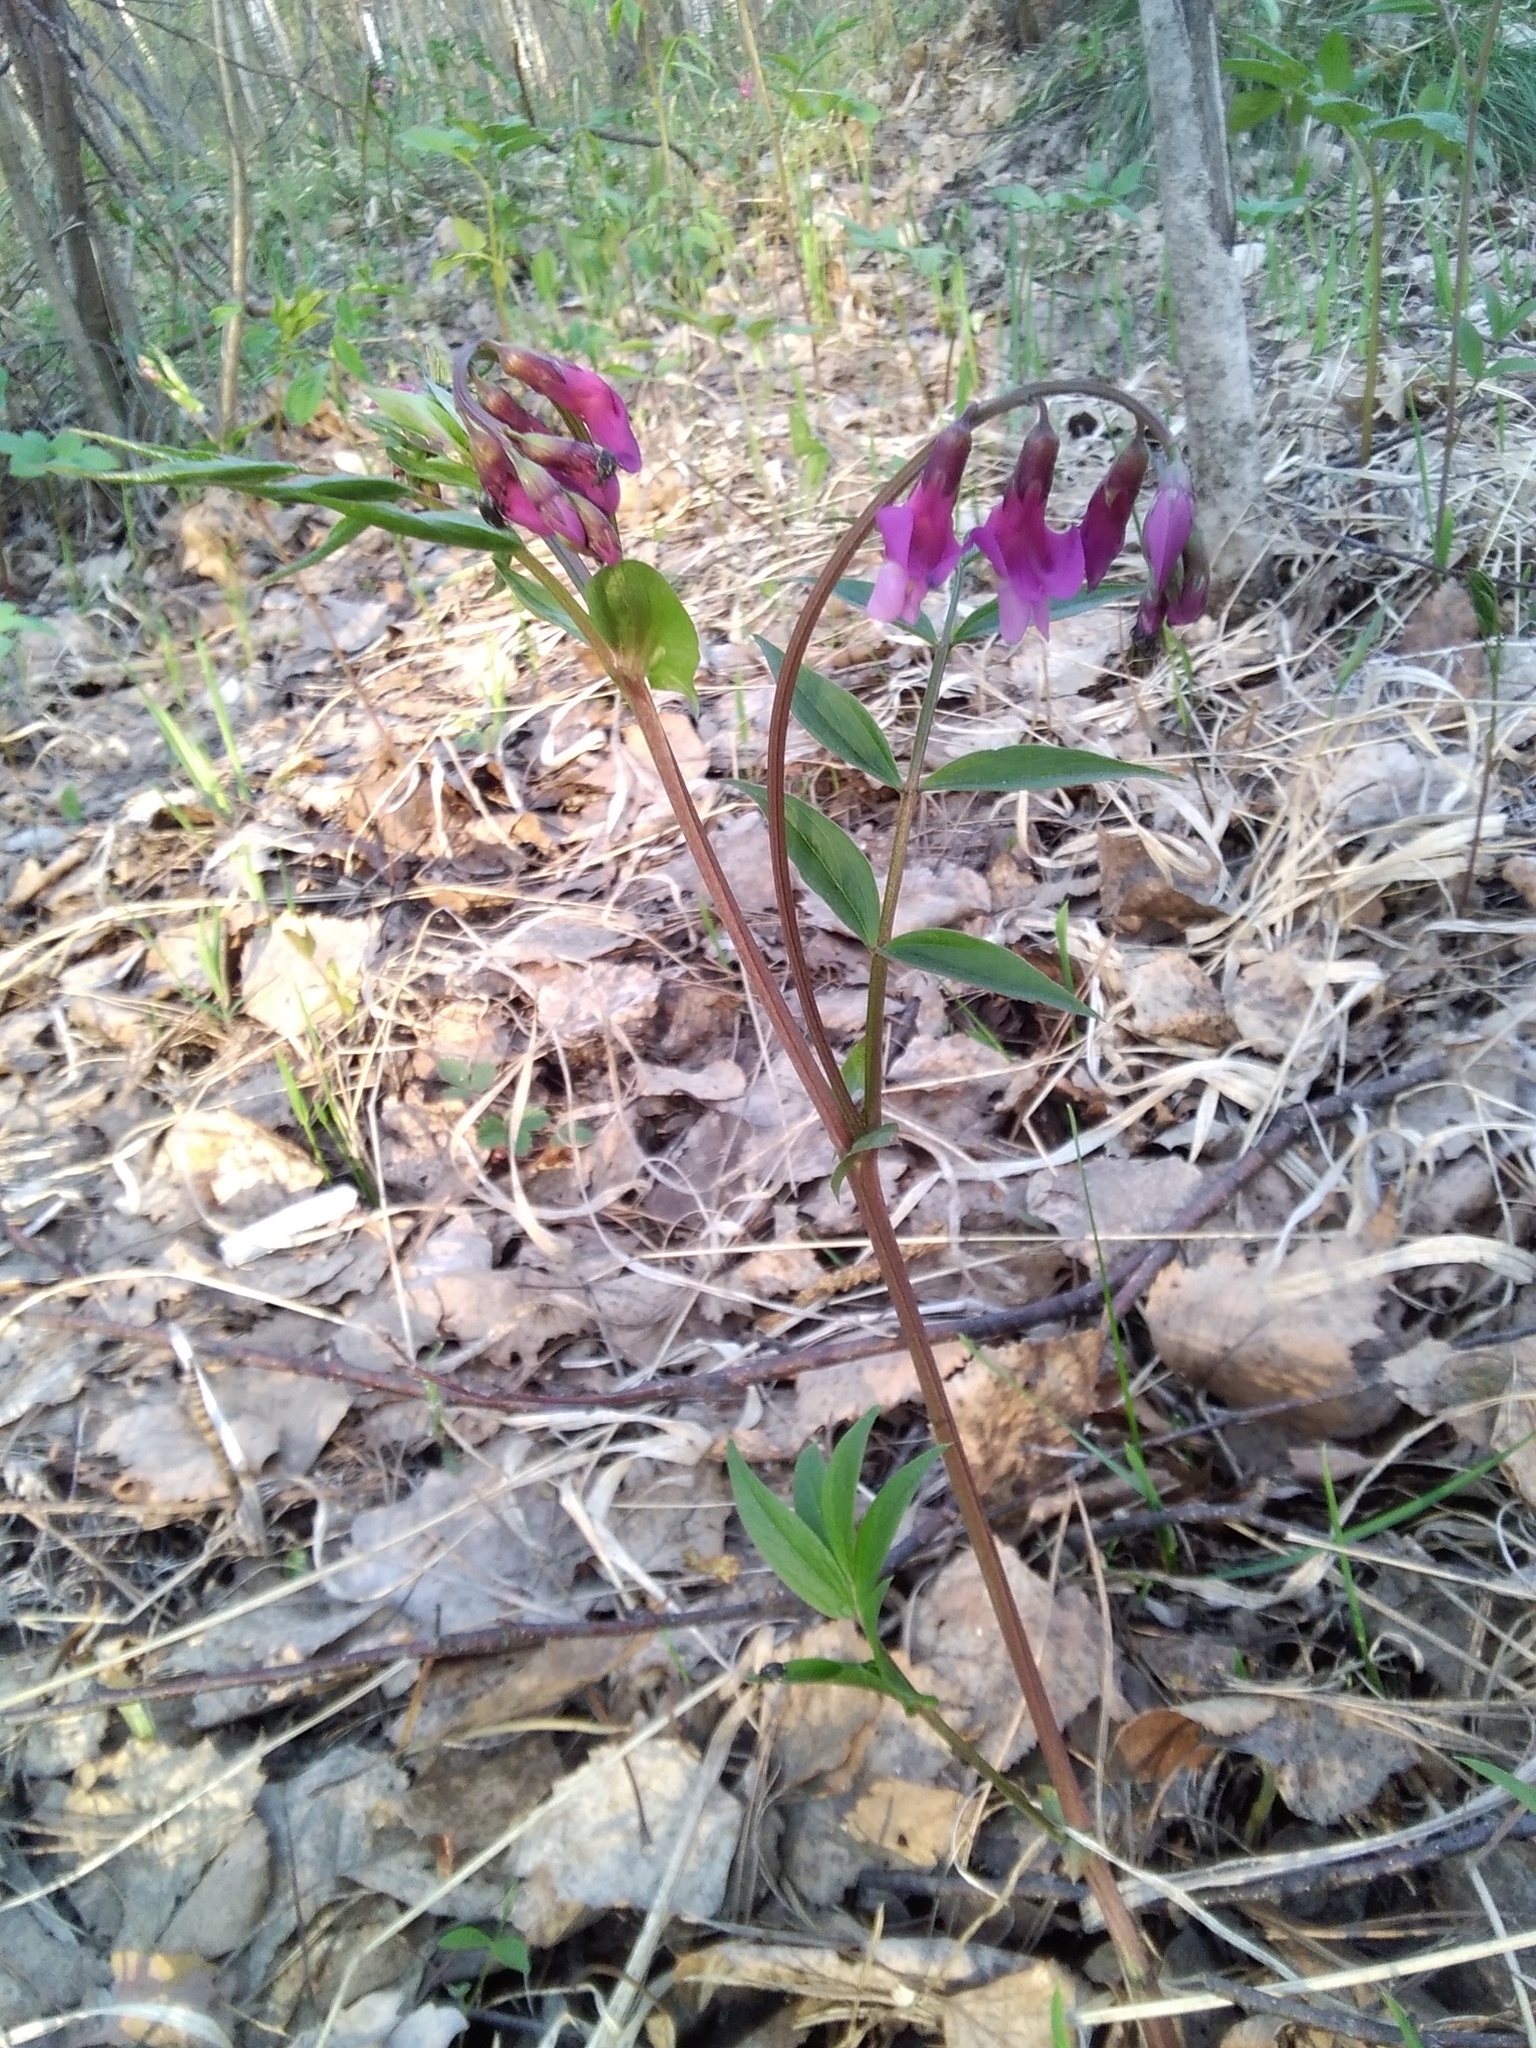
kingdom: Plantae
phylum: Tracheophyta
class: Magnoliopsida
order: Fabales
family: Fabaceae
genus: Lathyrus
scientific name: Lathyrus vernus
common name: Spring pea
